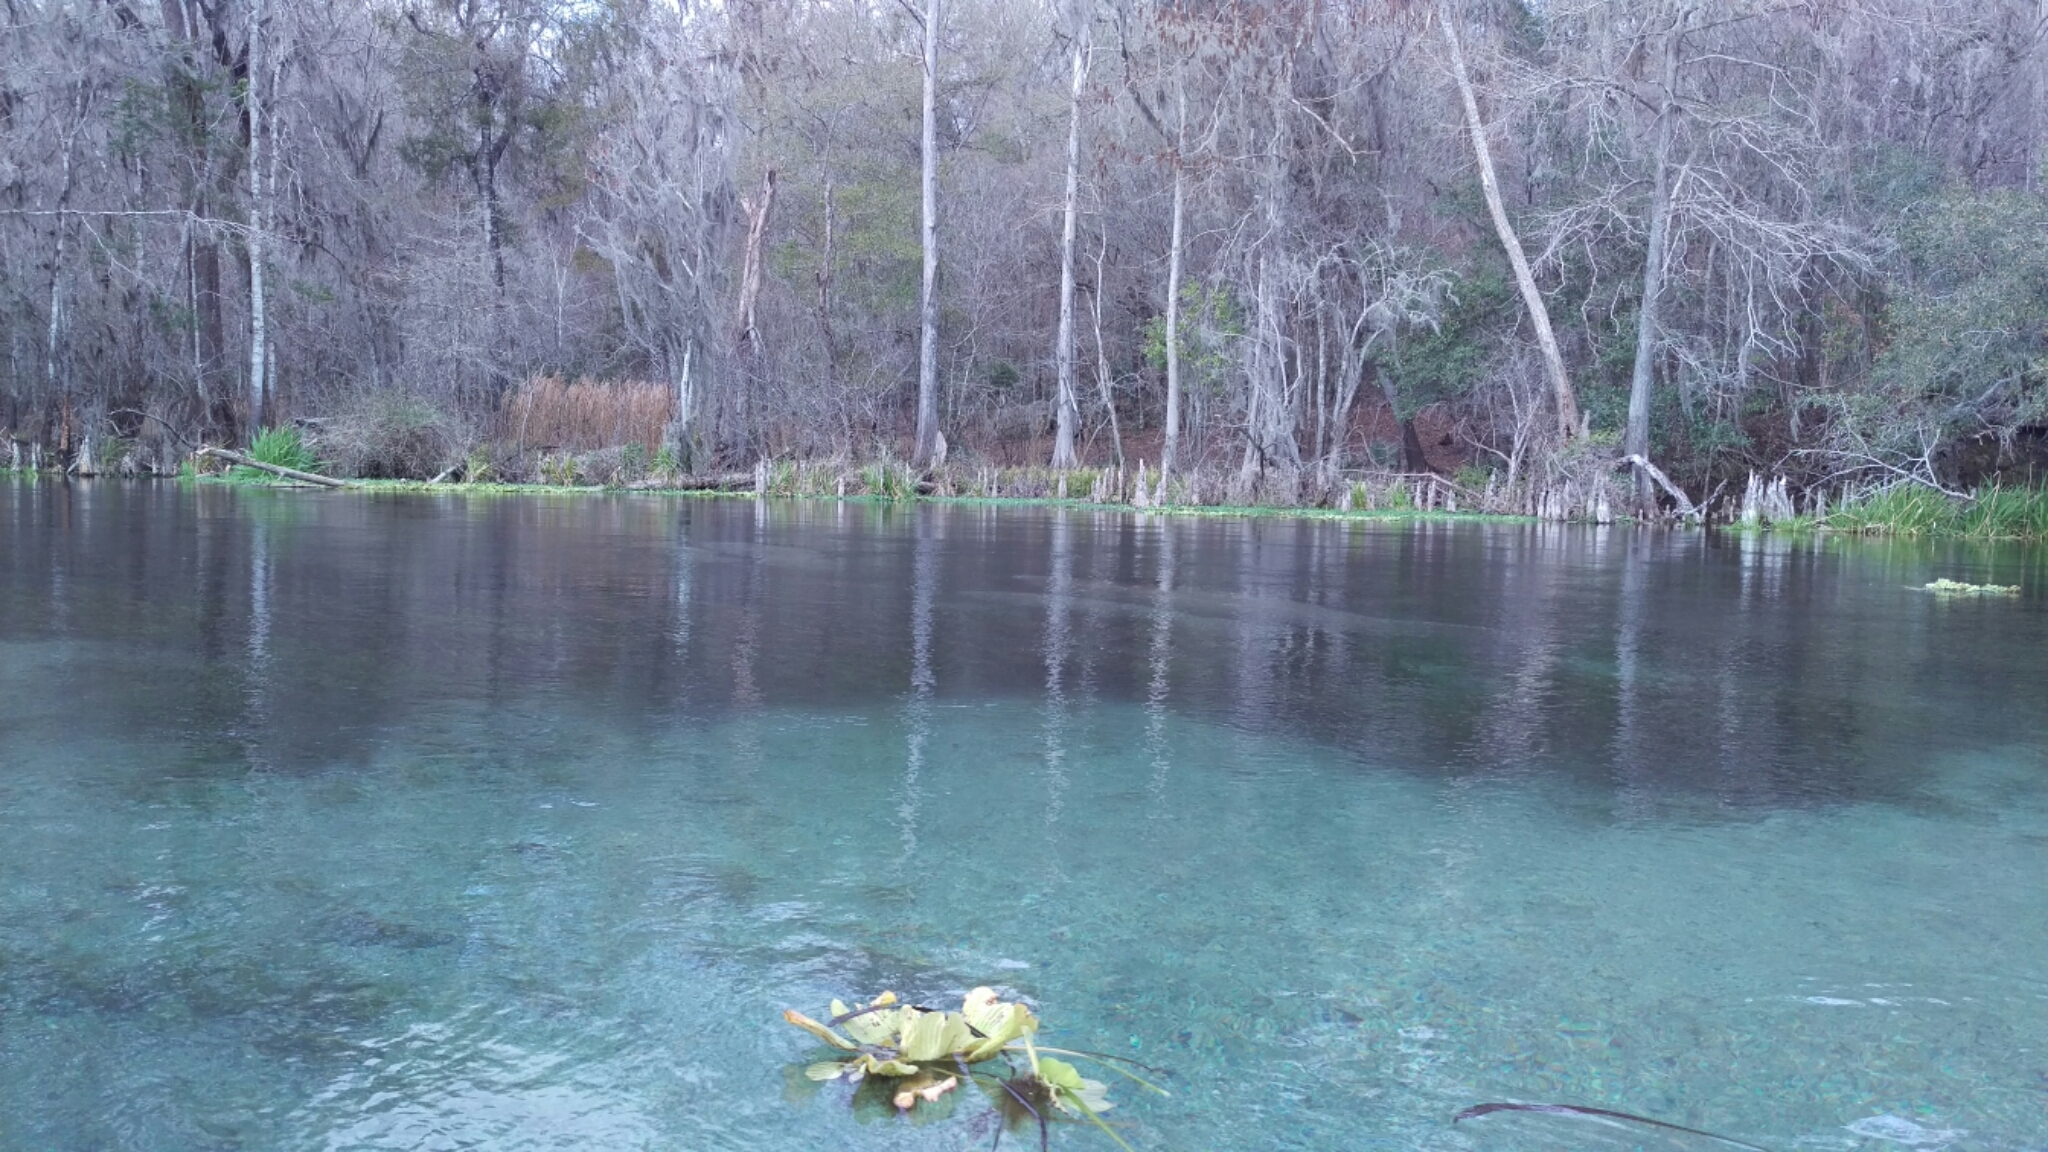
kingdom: Animalia
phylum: Chordata
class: Mammalia
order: Sirenia
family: Trichechidae
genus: Trichechus
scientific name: Trichechus manatus
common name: West indian manatee
